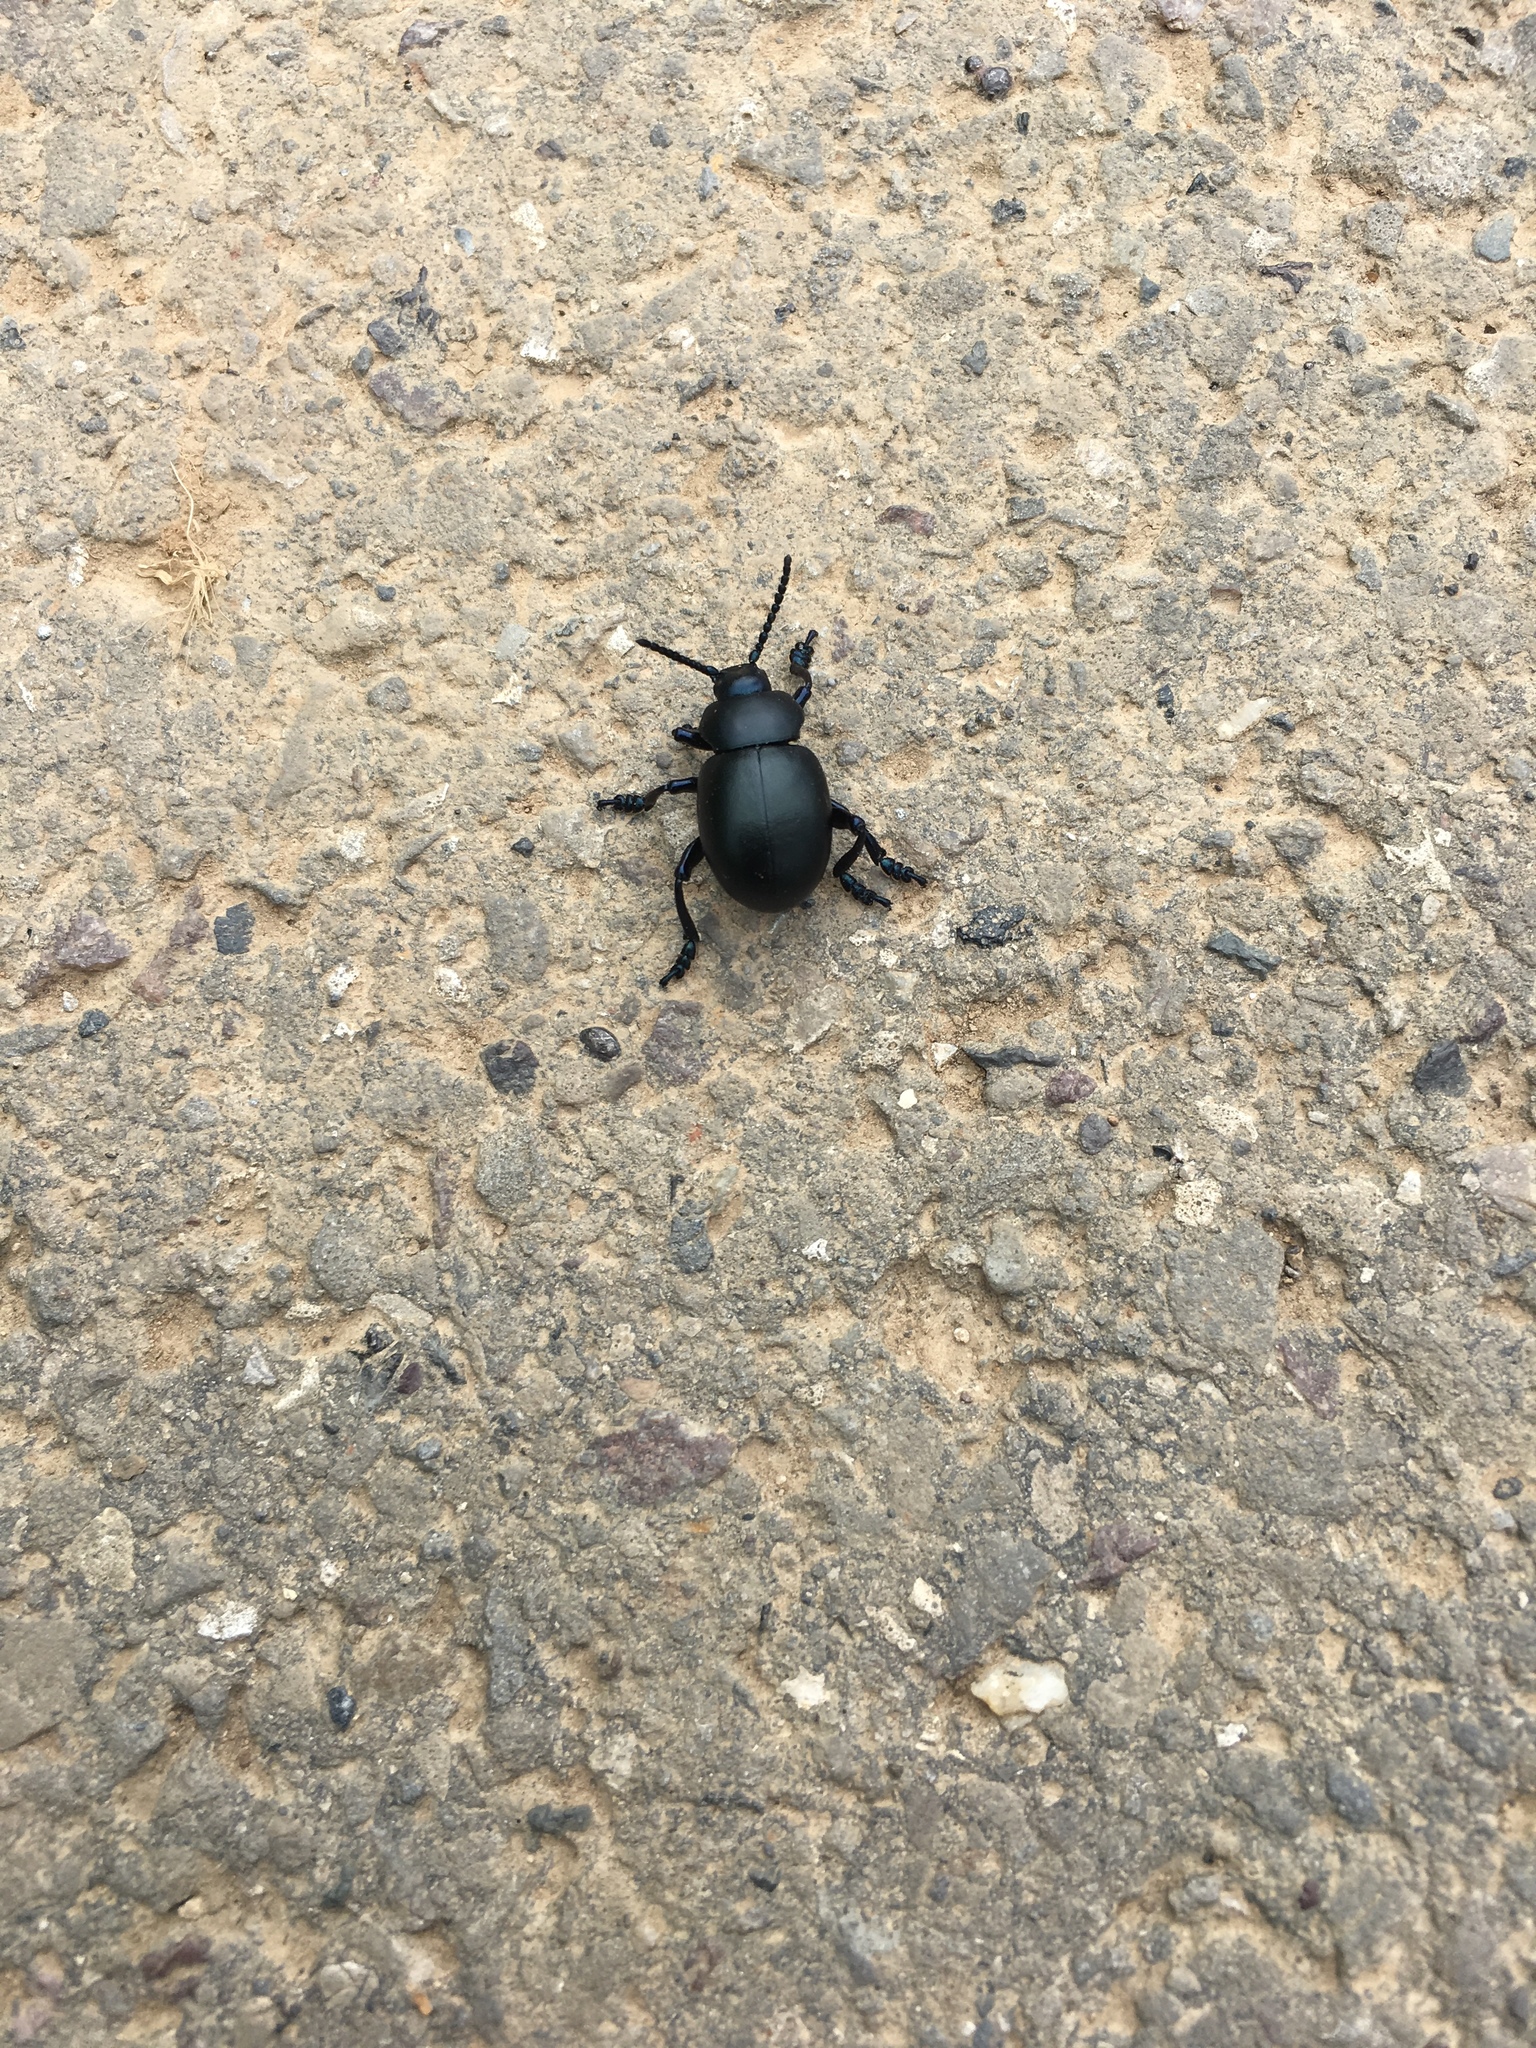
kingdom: Animalia
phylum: Arthropoda
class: Insecta
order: Coleoptera
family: Chrysomelidae
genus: Timarcha
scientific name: Timarcha tenebricosa
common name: Bloody-nosed beetle
